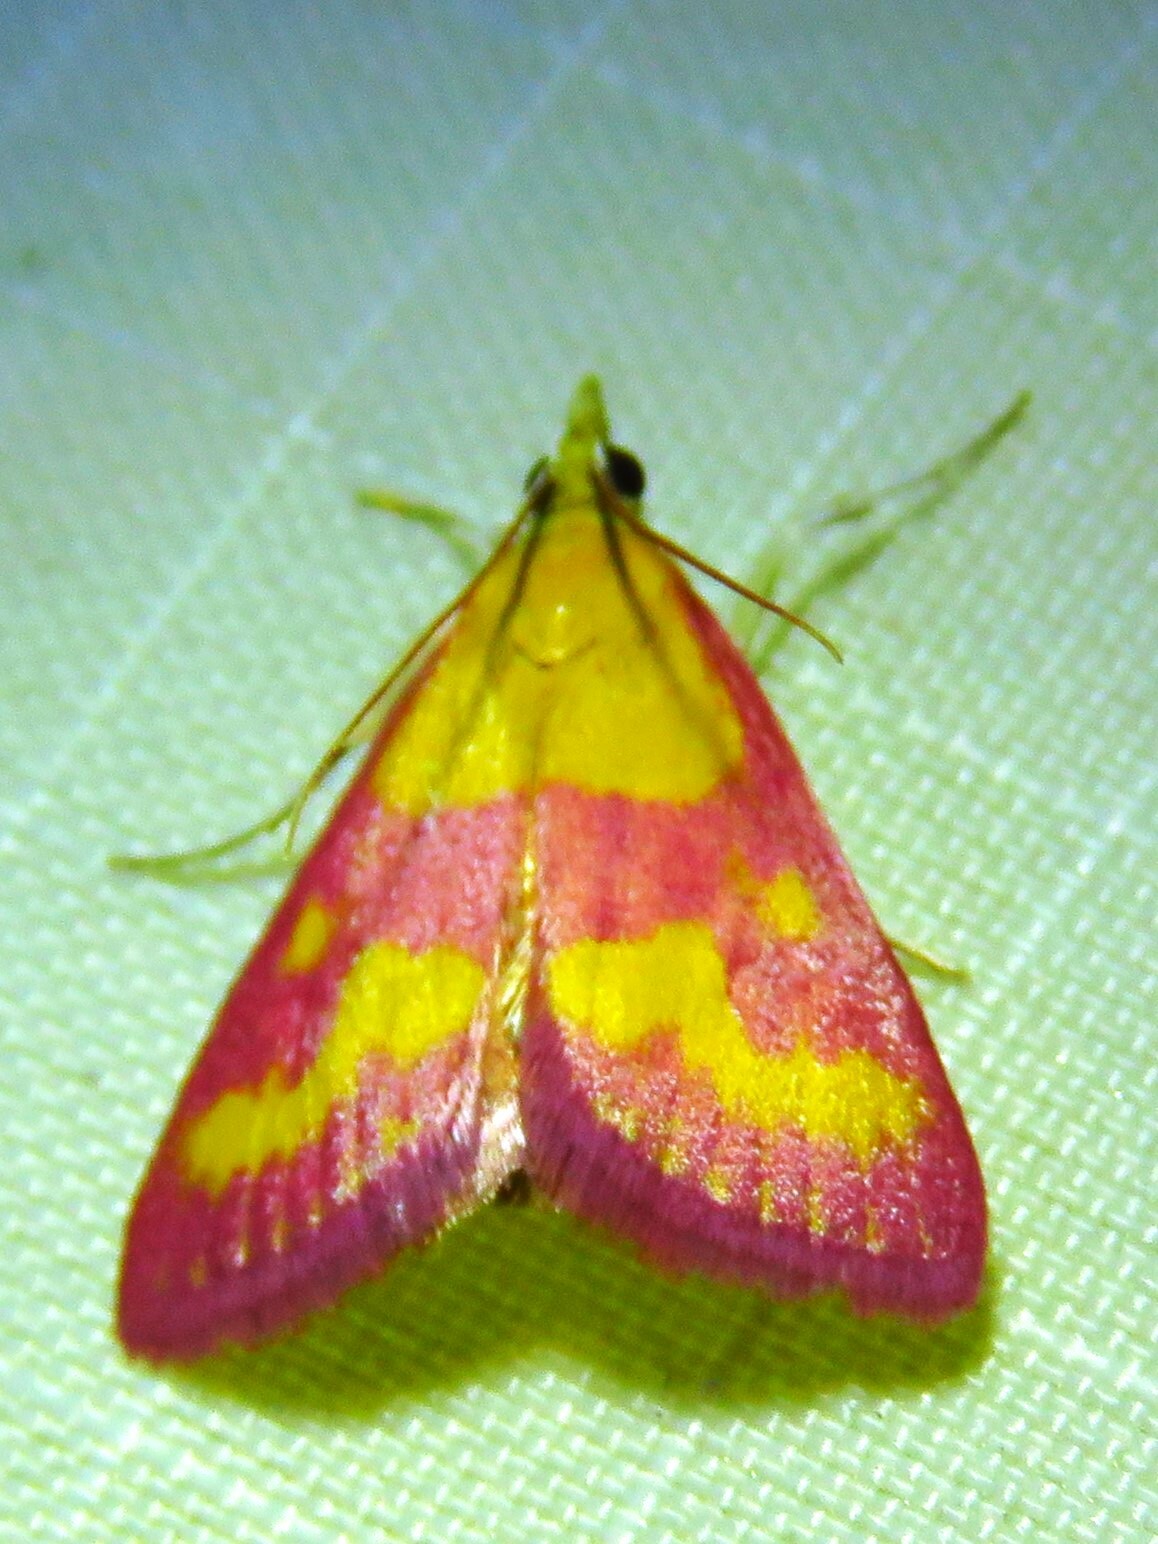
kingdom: Animalia
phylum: Arthropoda
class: Insecta
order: Lepidoptera
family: Crambidae
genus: Pyrausta
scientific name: Pyrausta laticlavia
